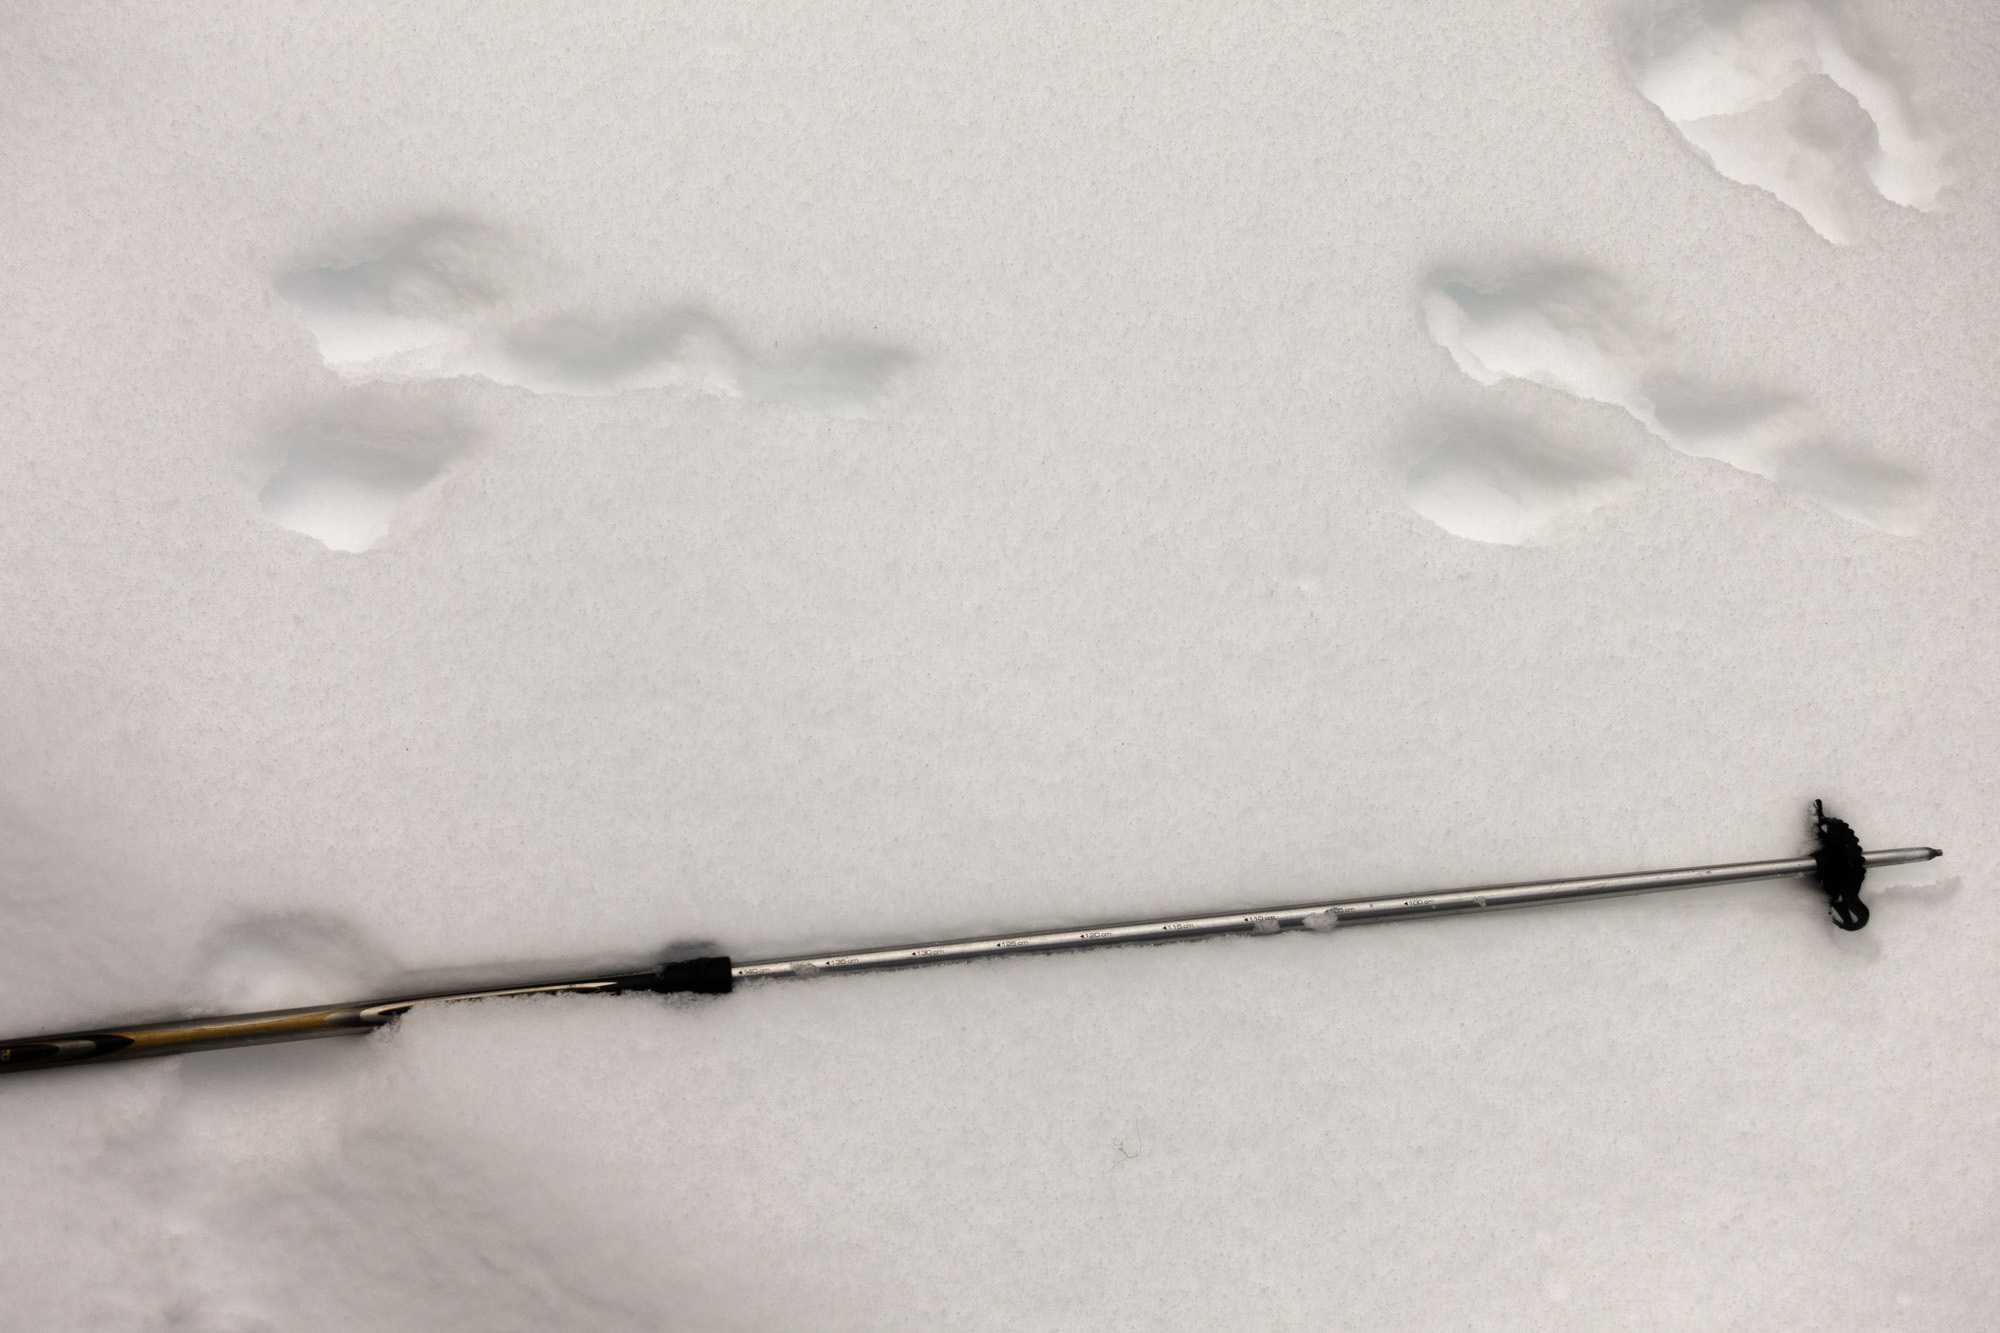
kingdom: Animalia
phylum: Chordata
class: Mammalia
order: Lagomorpha
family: Leporidae
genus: Lepus
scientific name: Lepus americanus
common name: Snowshoe hare
